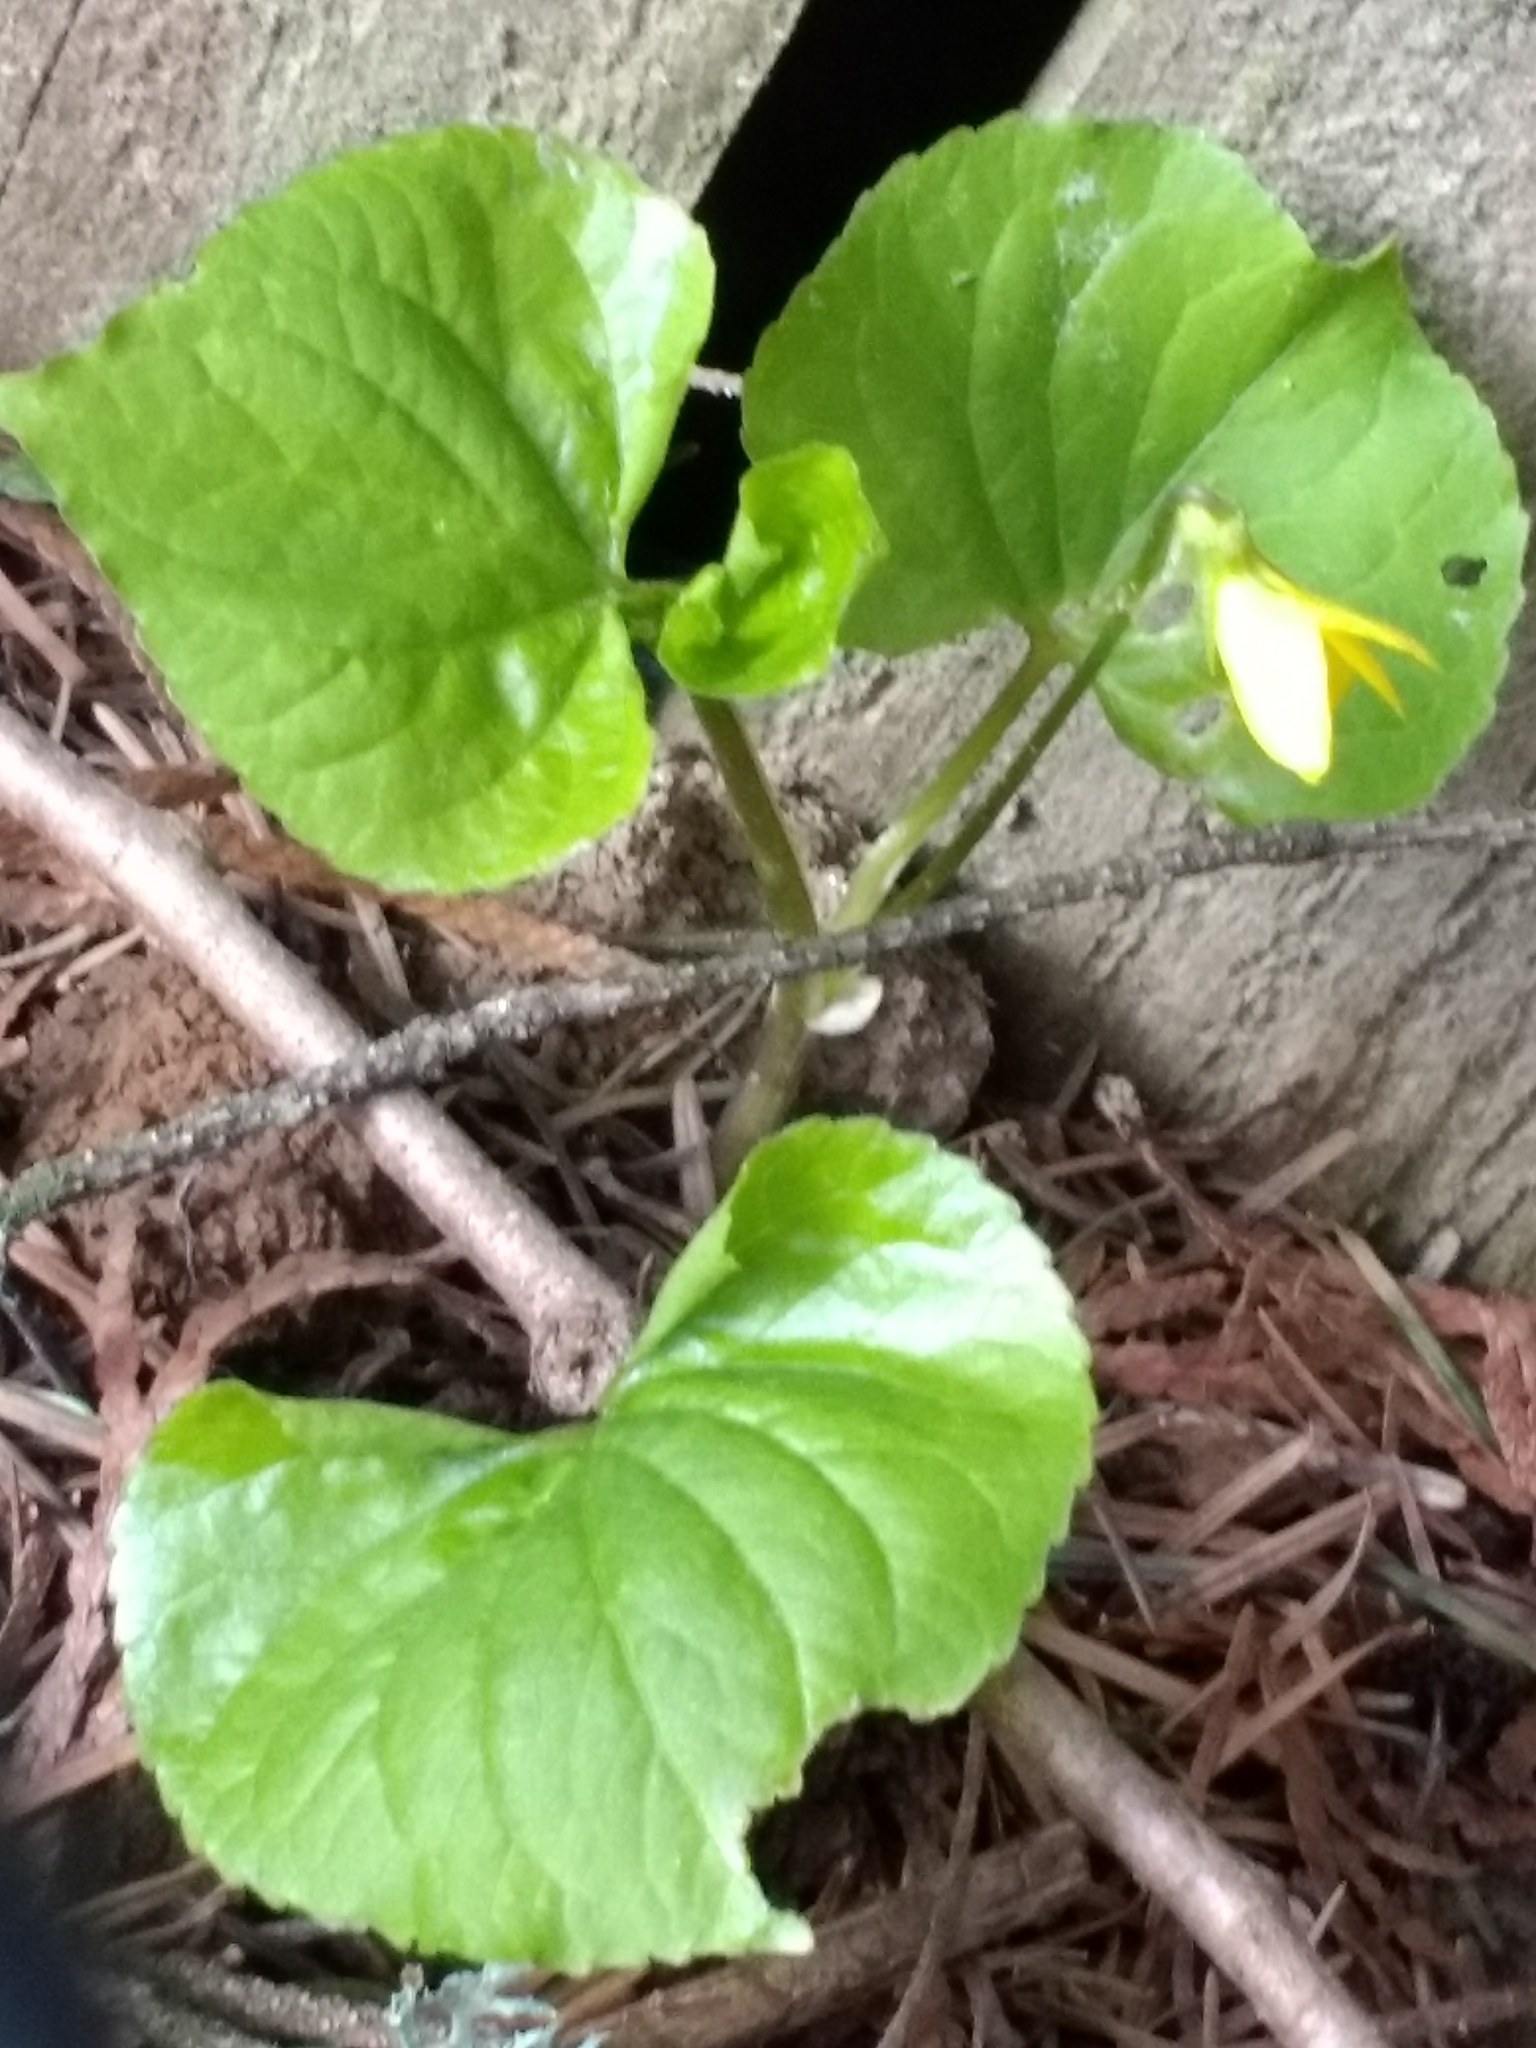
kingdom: Plantae
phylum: Tracheophyta
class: Magnoliopsida
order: Malpighiales
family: Violaceae
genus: Viola
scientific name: Viola glabella
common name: Stream violet
